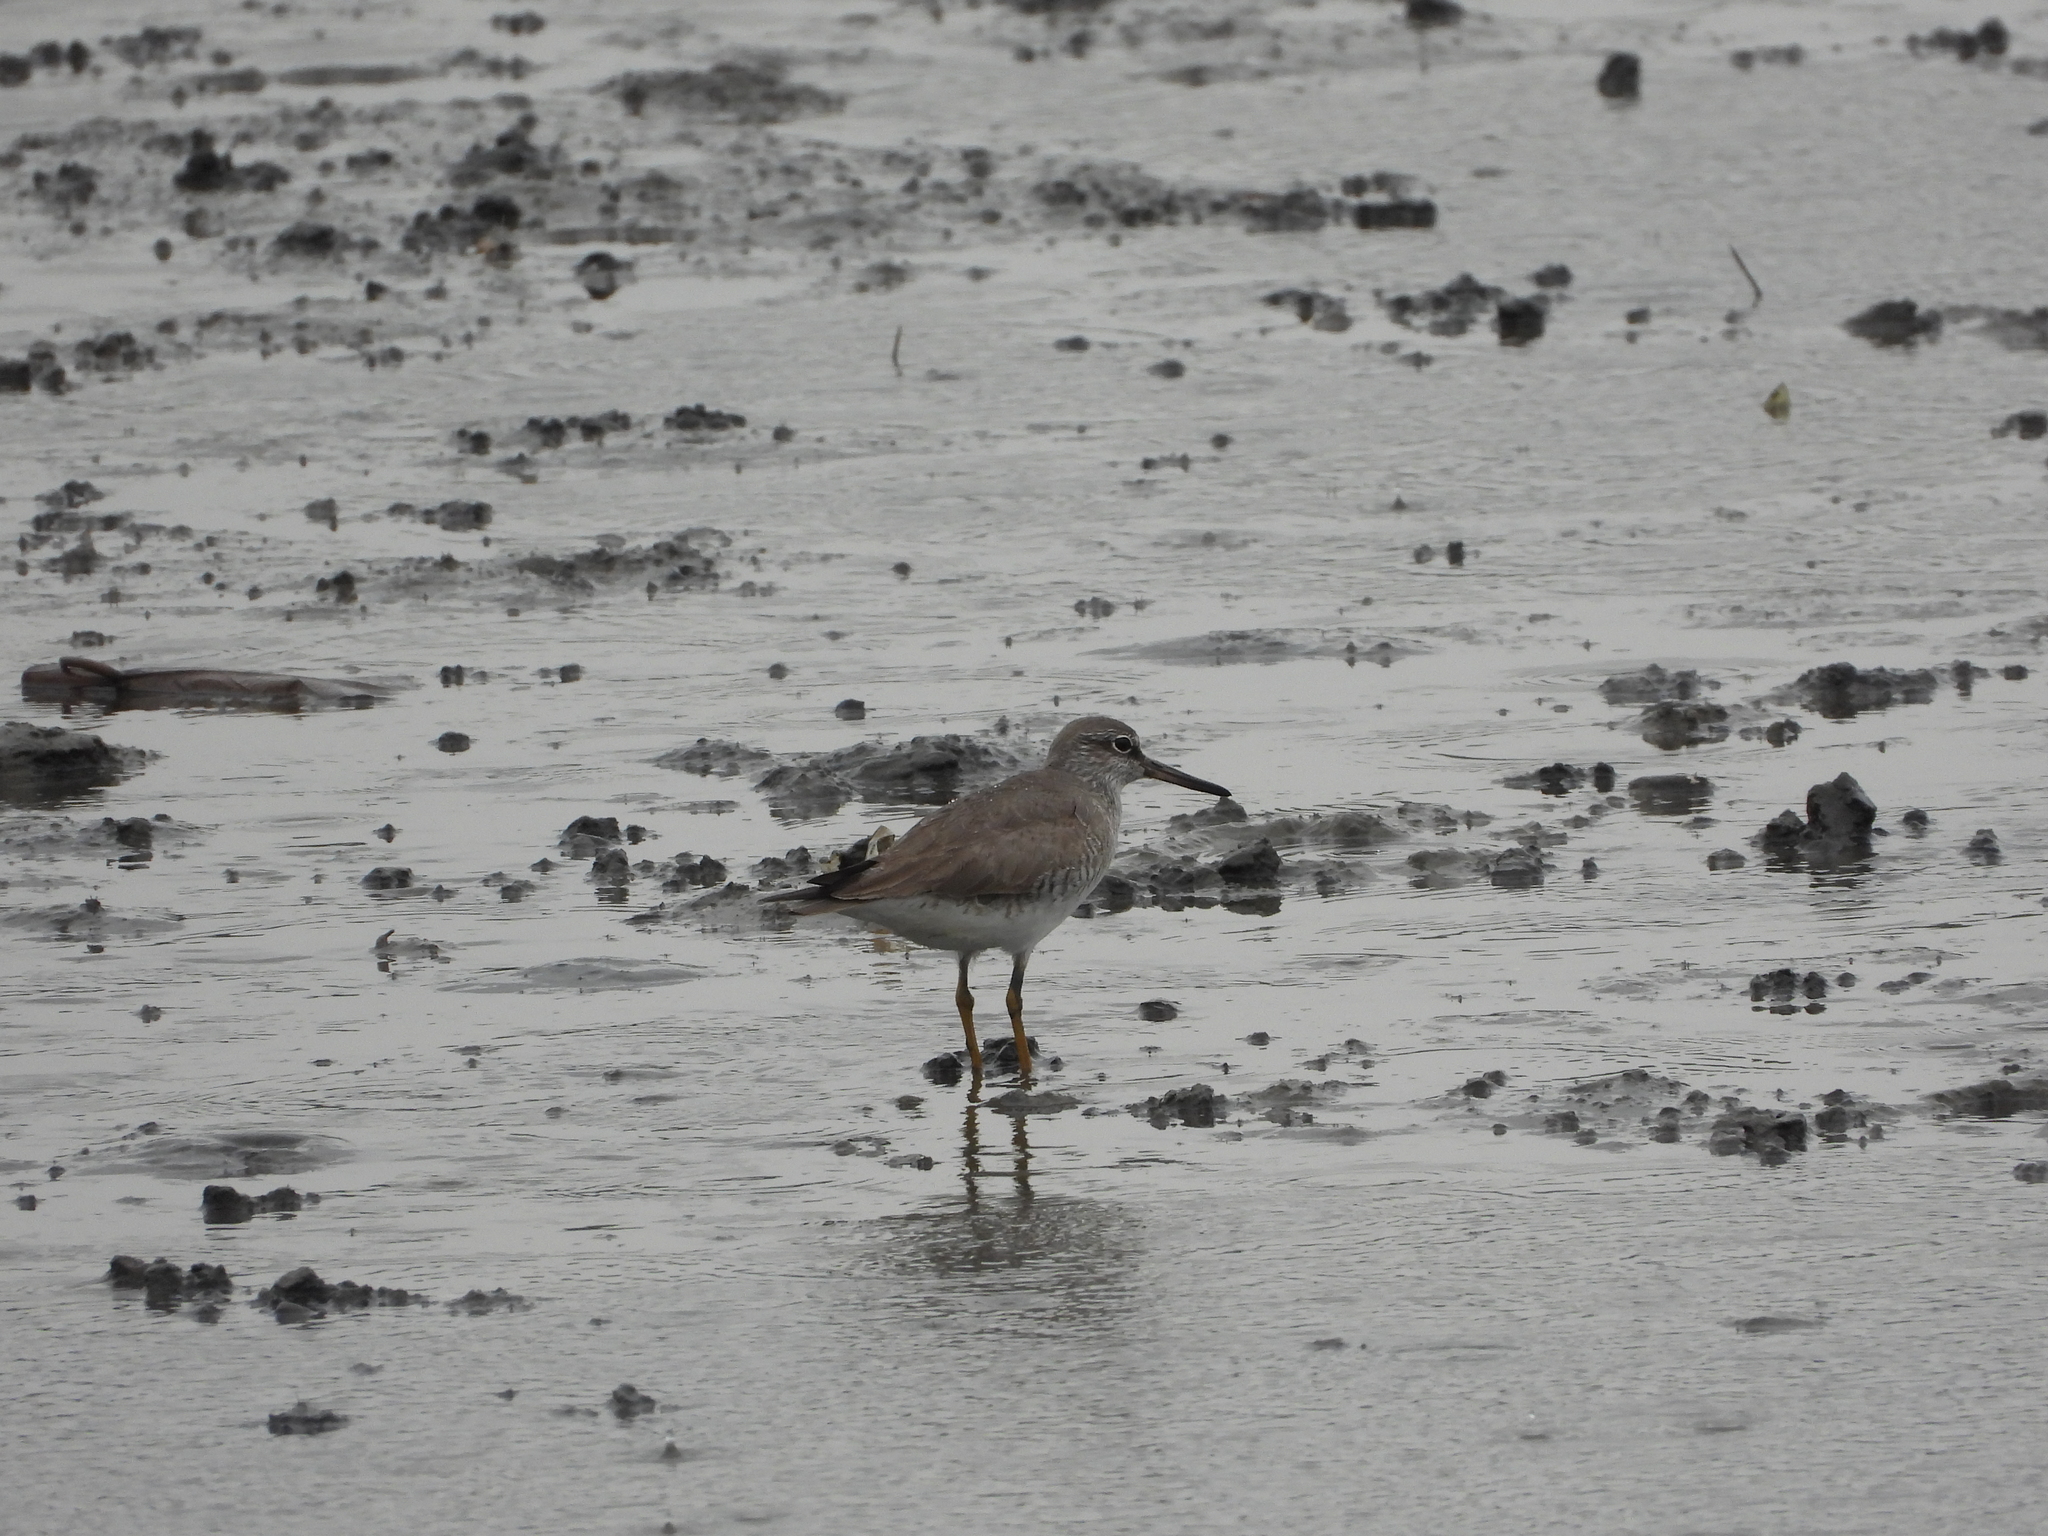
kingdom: Animalia
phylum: Chordata
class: Aves
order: Charadriiformes
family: Scolopacidae
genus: Tringa
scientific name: Tringa brevipes
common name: Grey-tailed tattler
